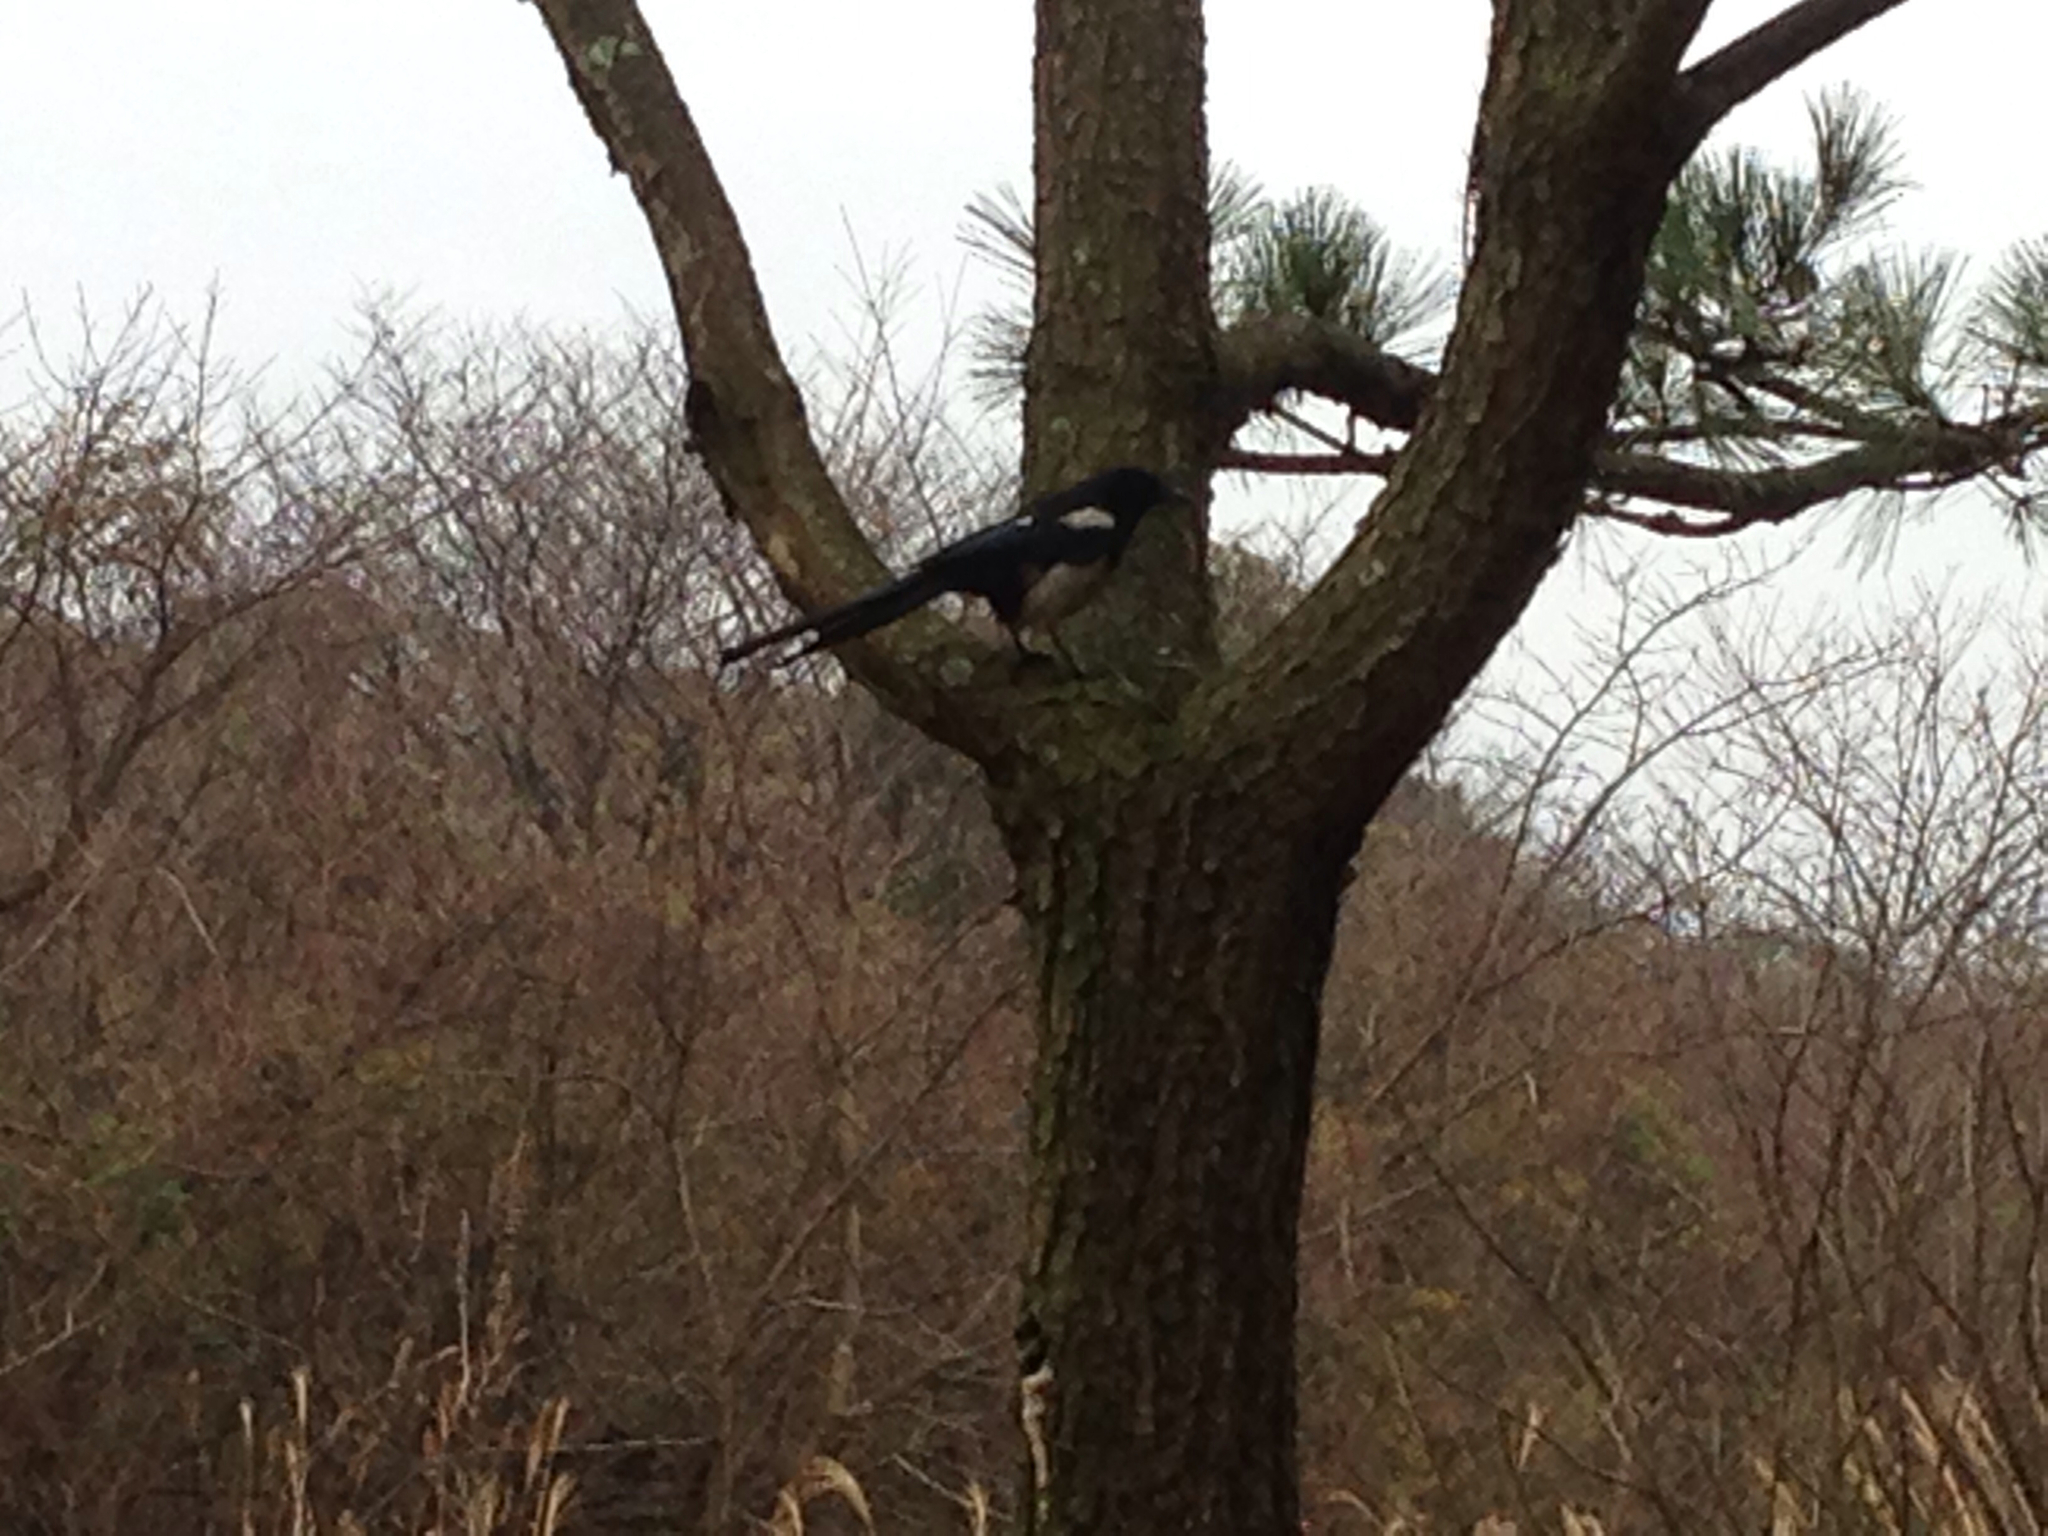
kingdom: Animalia
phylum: Chordata
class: Aves
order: Passeriformes
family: Corvidae
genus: Pica
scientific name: Pica serica
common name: Oriental magpie
